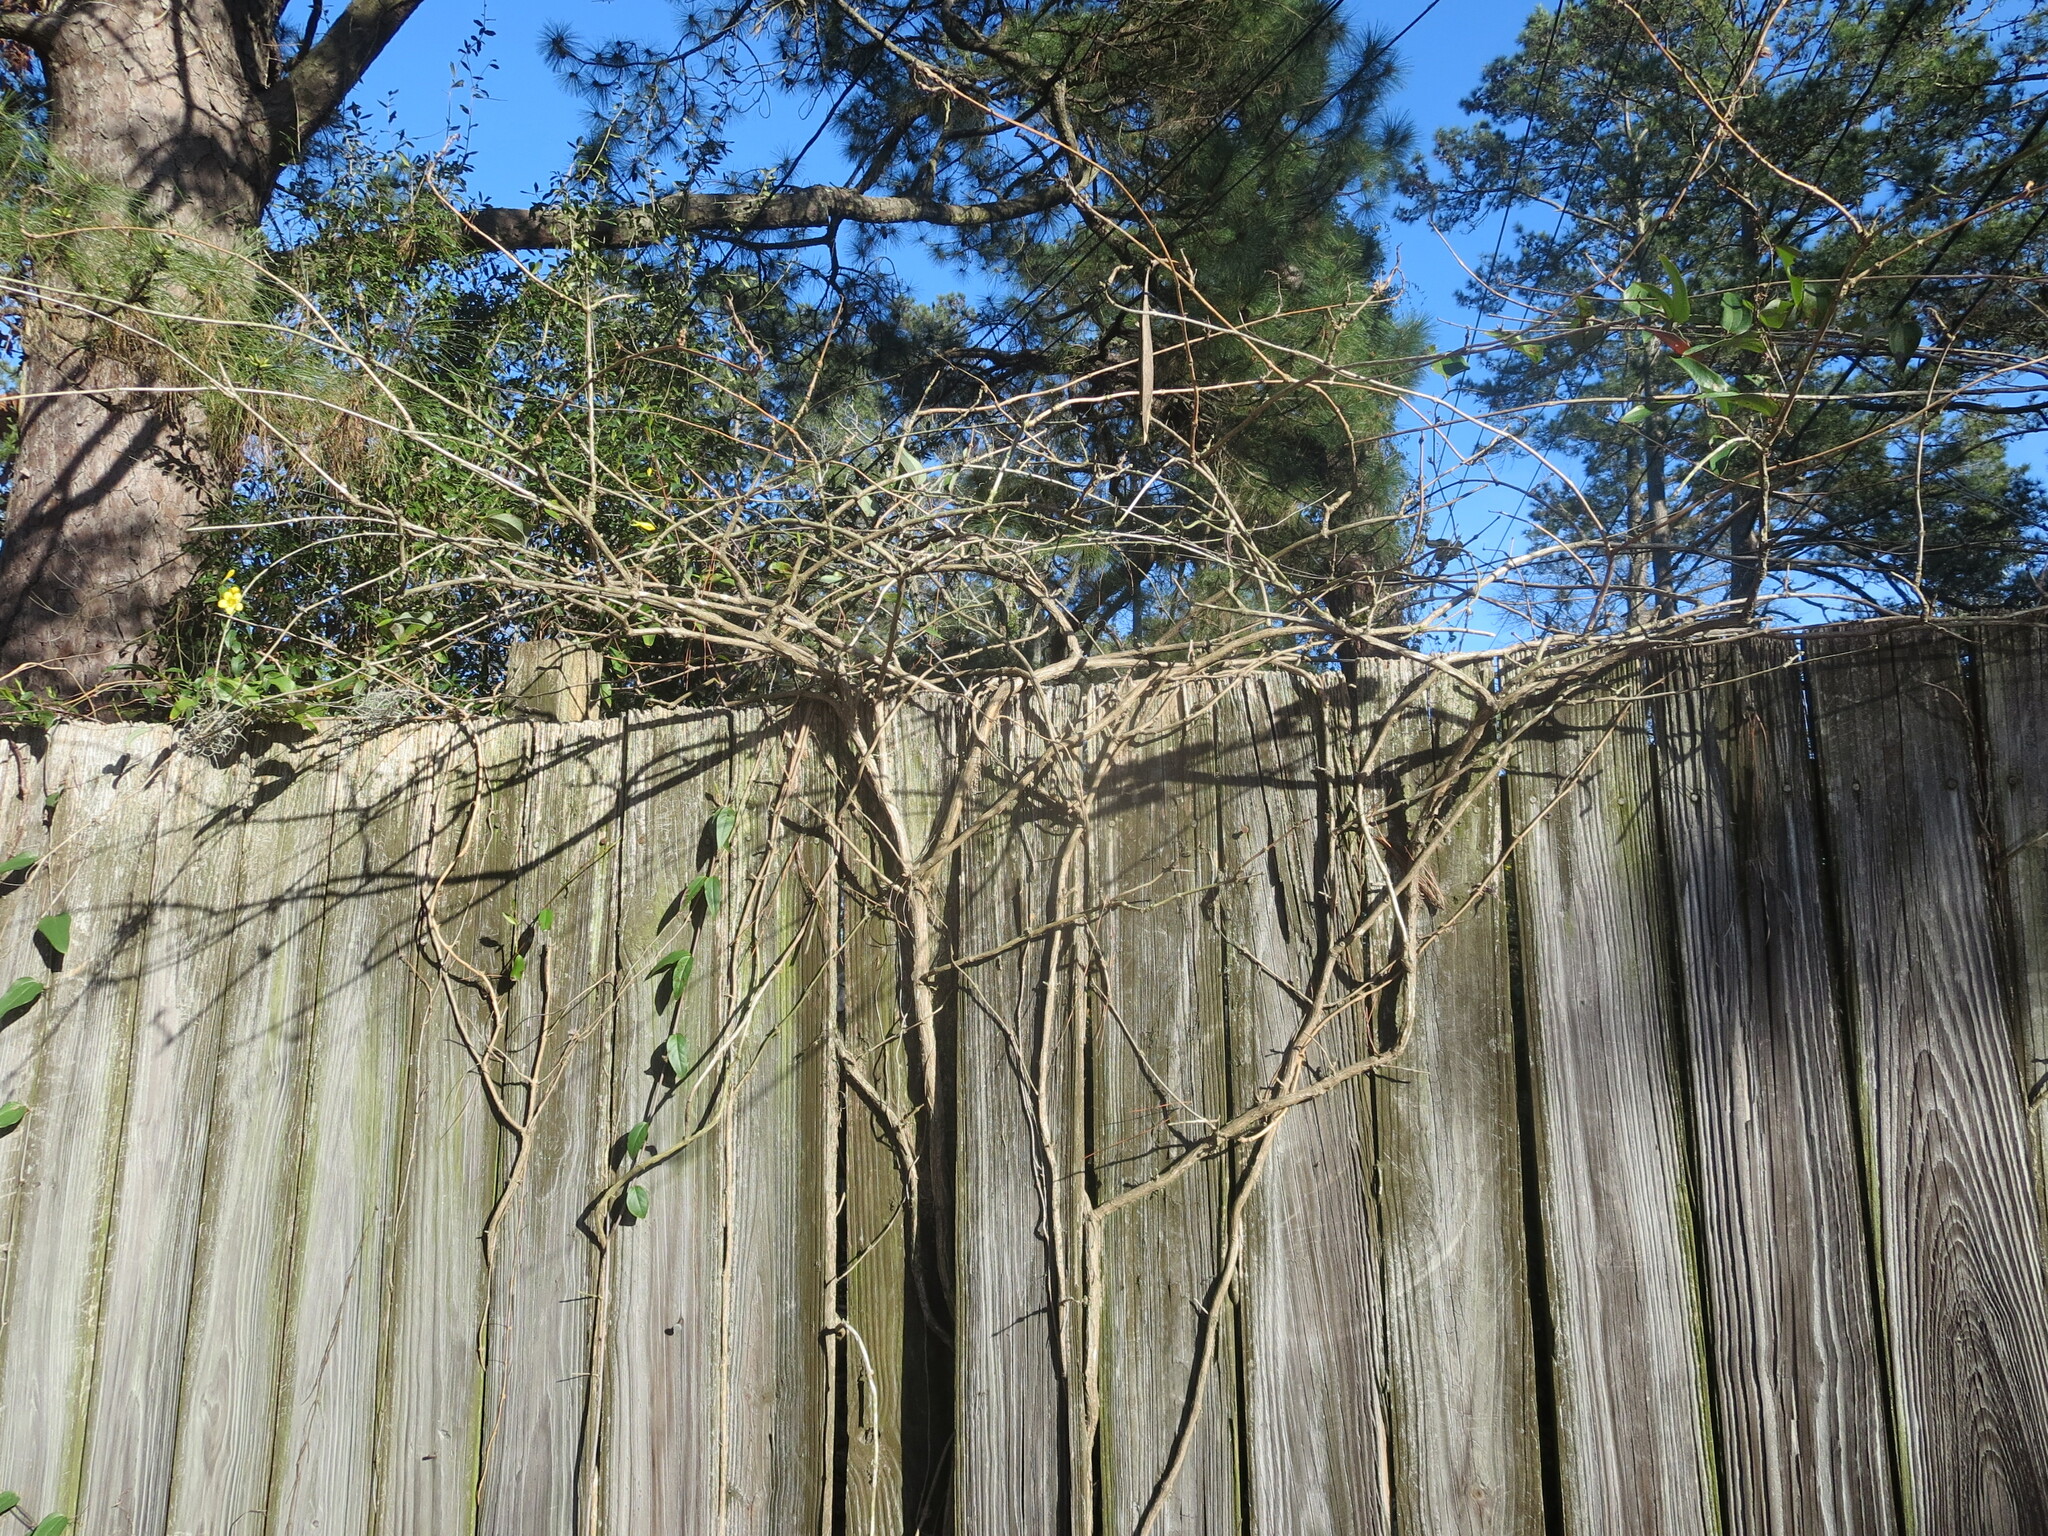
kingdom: Plantae
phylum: Tracheophyta
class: Magnoliopsida
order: Lamiales
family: Bignoniaceae
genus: Campsis
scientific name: Campsis radicans
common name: Trumpet-creeper
